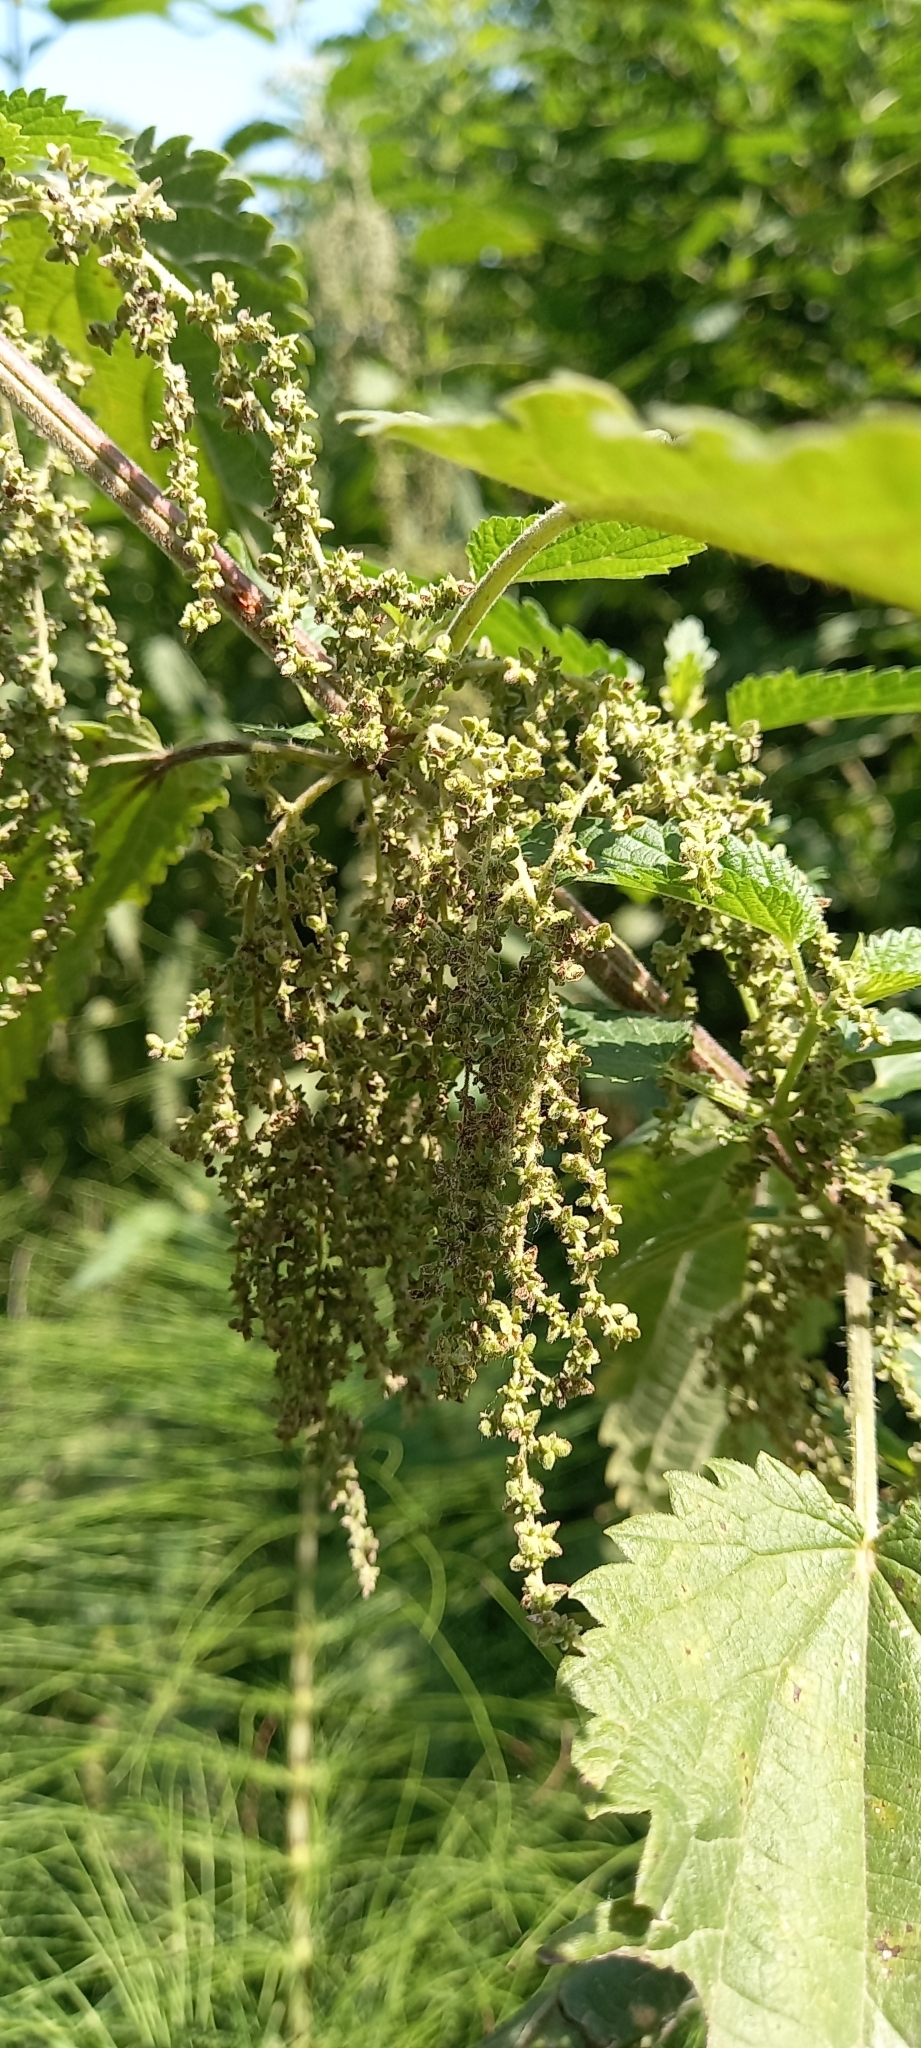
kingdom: Plantae
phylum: Tracheophyta
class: Magnoliopsida
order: Rosales
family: Urticaceae
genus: Urtica
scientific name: Urtica dioica
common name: Common nettle
